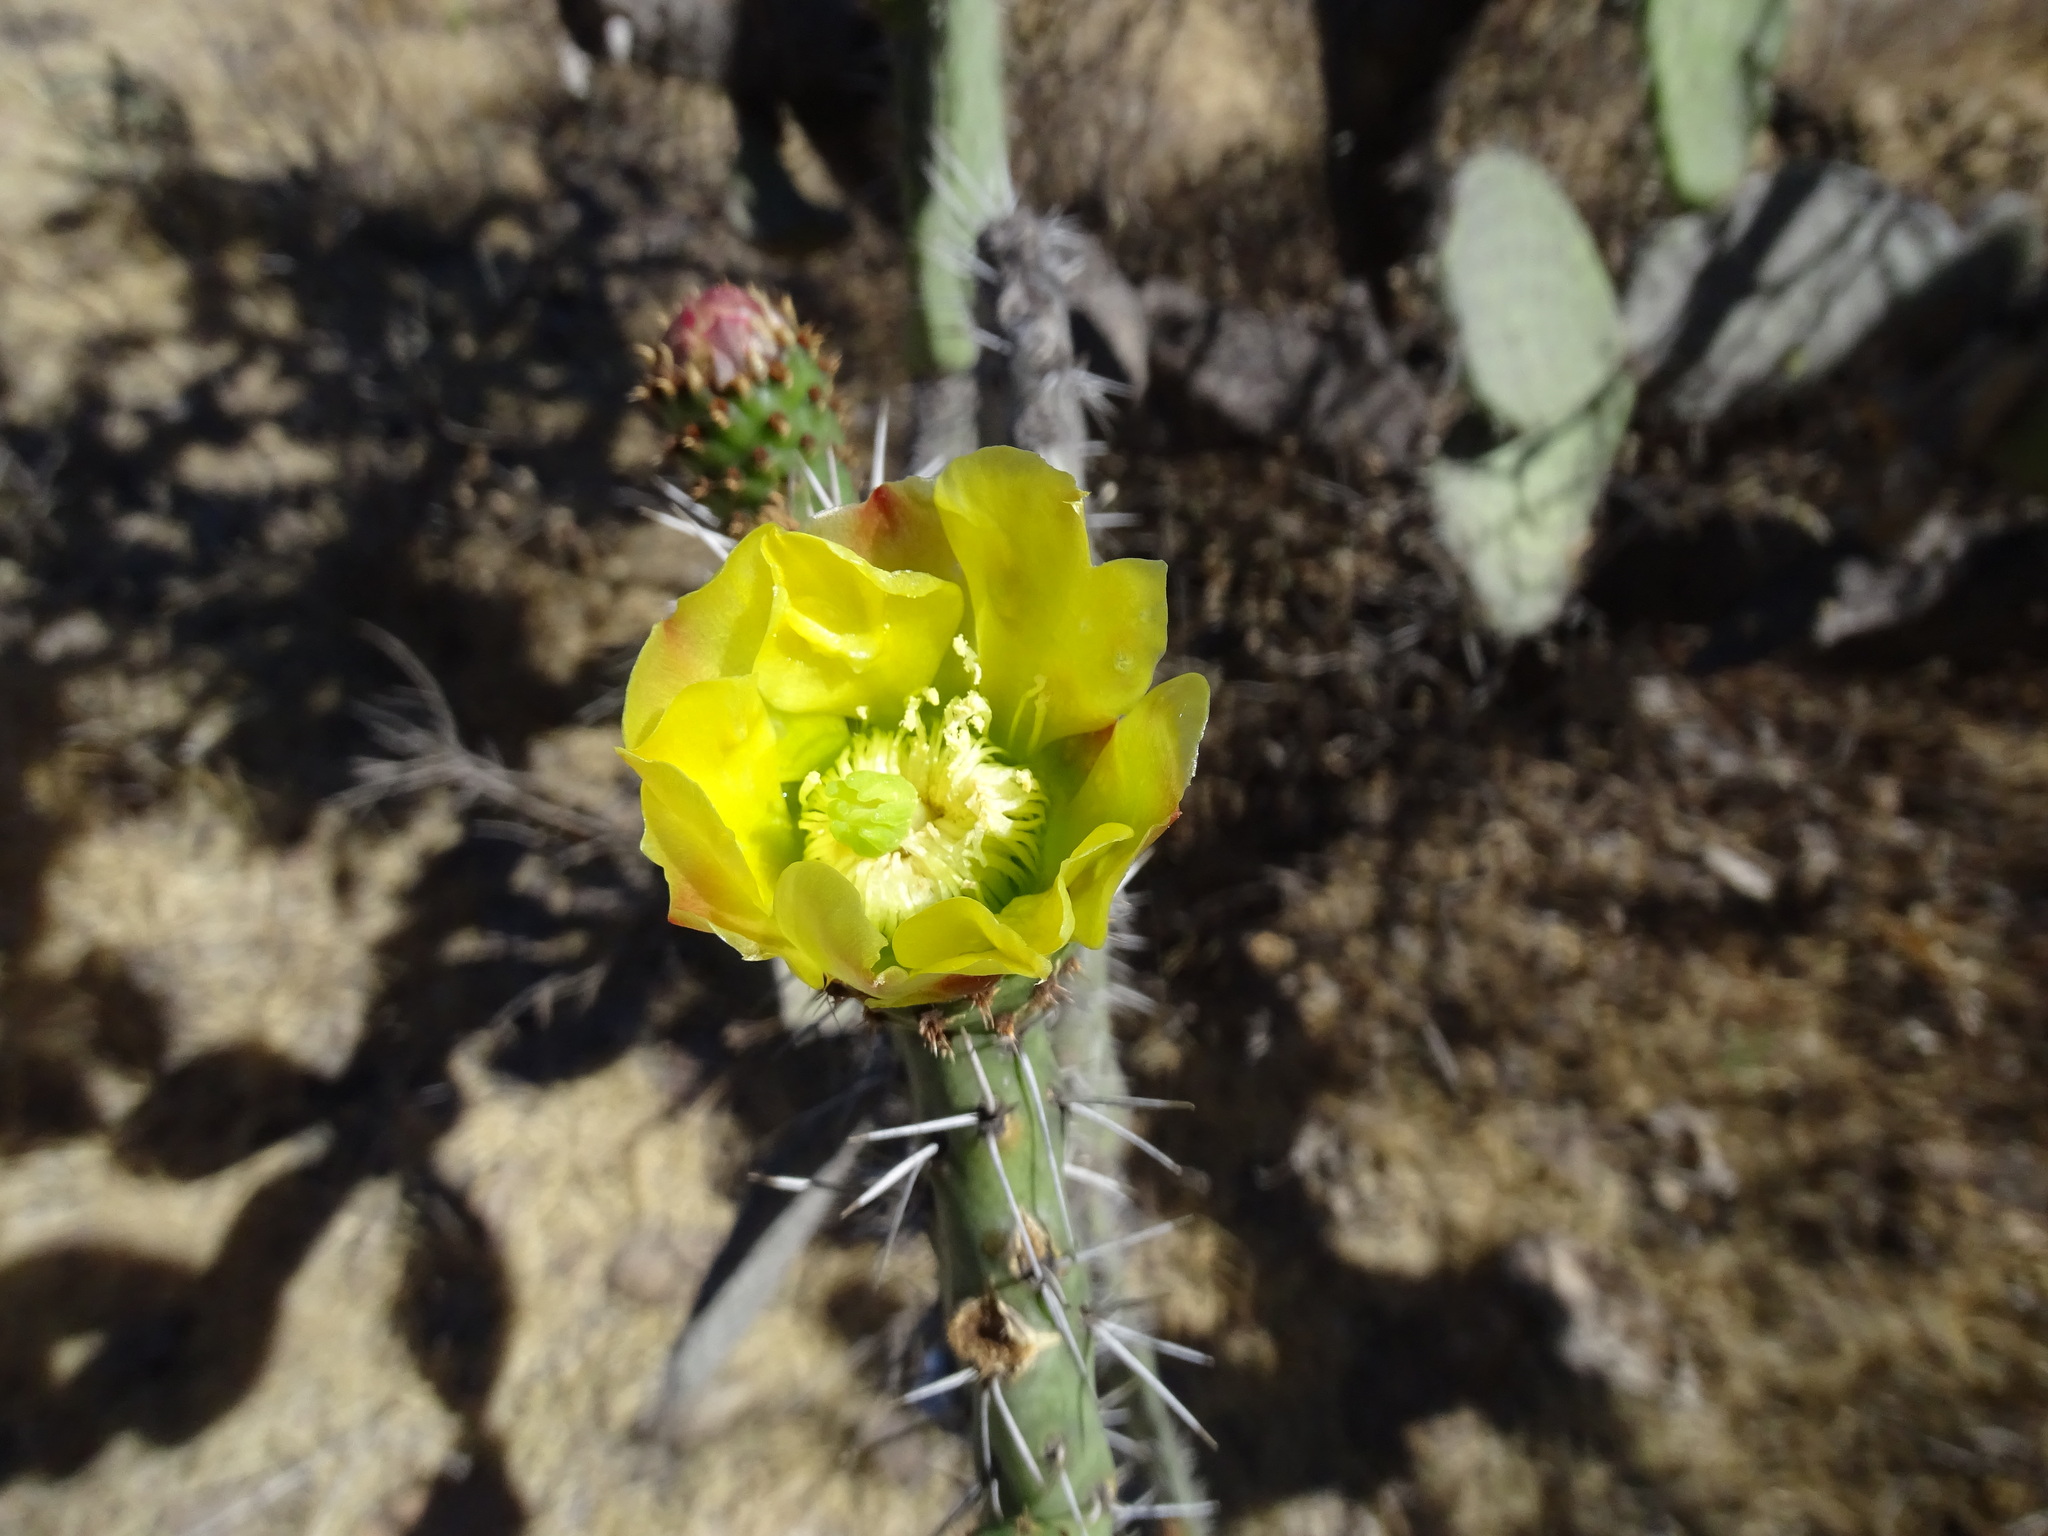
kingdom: Plantae
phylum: Tracheophyta
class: Magnoliopsida
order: Caryophyllales
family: Cactaceae
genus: Opuntia
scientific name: Opuntia lasiacantha
